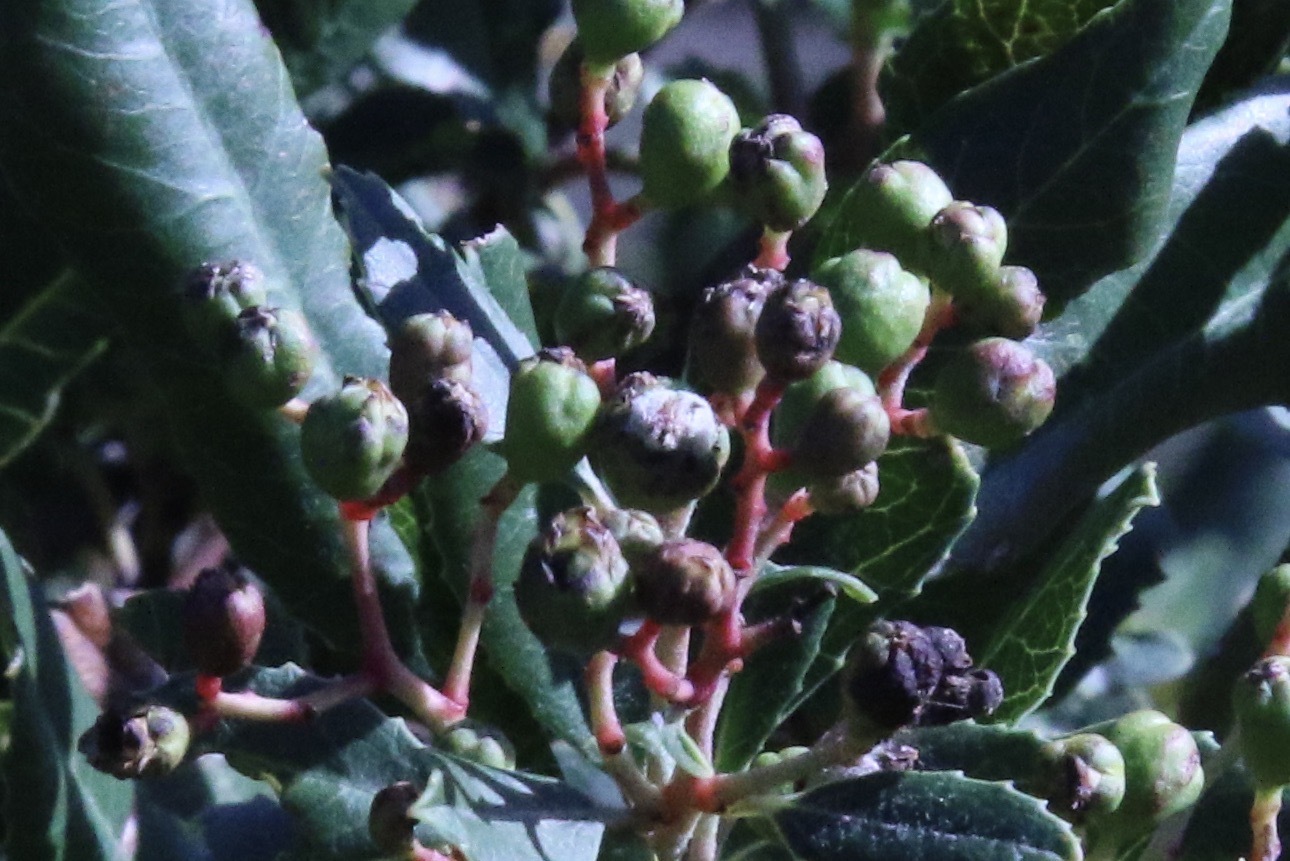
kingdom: Animalia
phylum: Arthropoda
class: Insecta
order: Diptera
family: Cecidomyiidae
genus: Asphondylia
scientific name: Asphondylia photiniae
